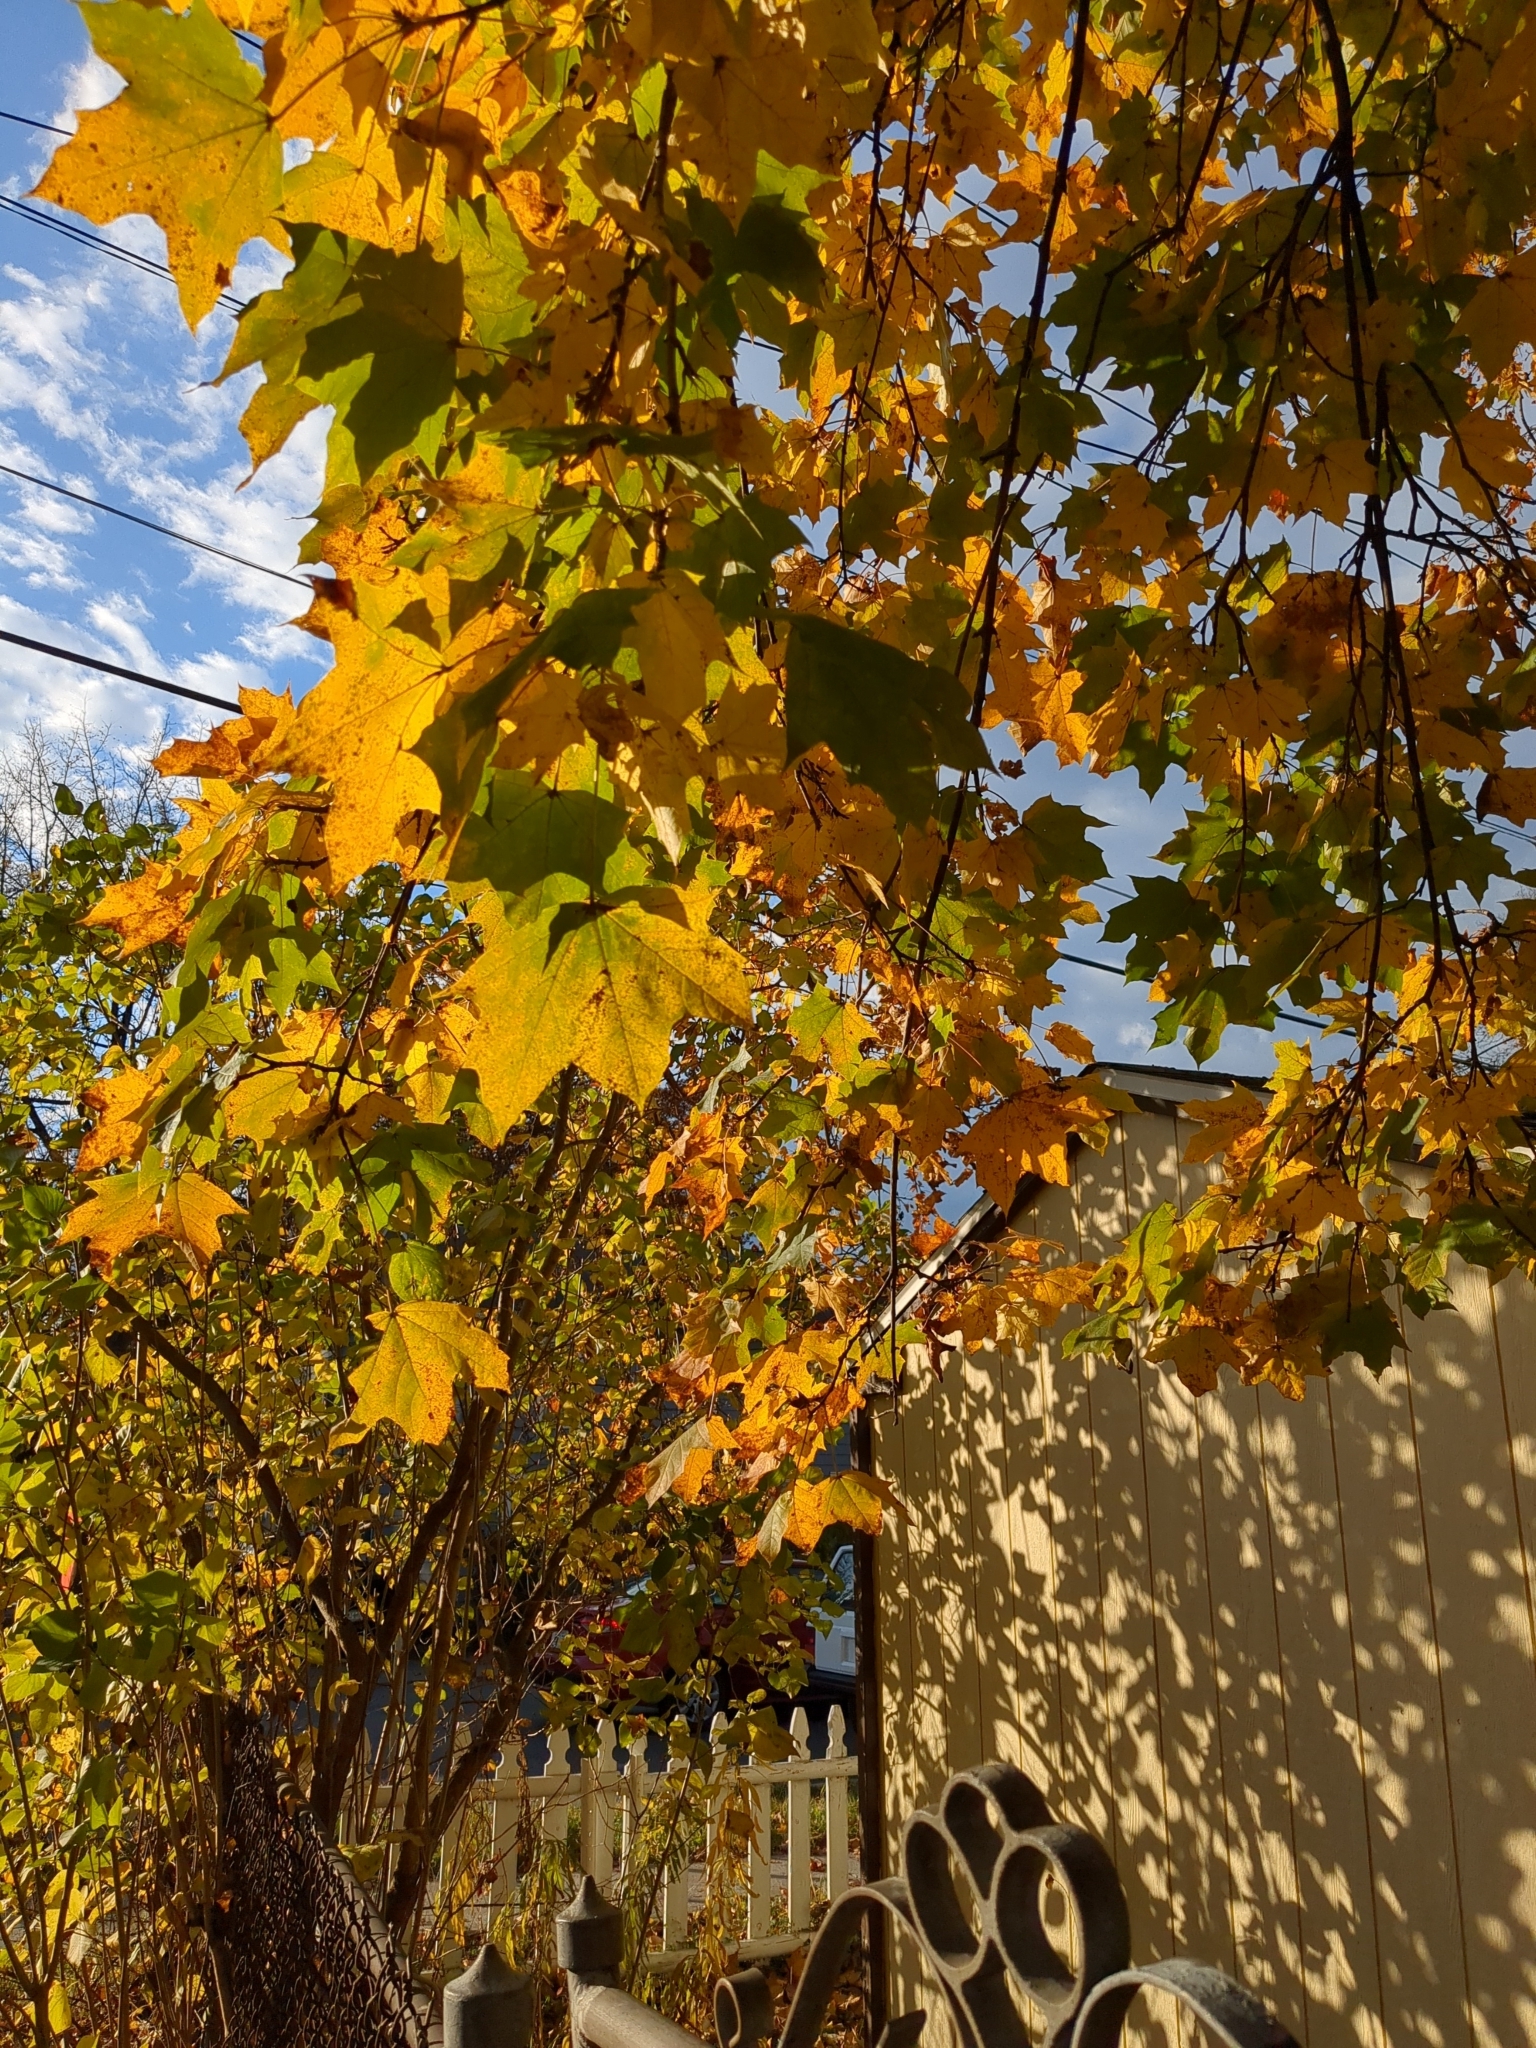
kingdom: Plantae
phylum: Tracheophyta
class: Magnoliopsida
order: Sapindales
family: Sapindaceae
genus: Acer
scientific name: Acer platanoides
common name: Norway maple
